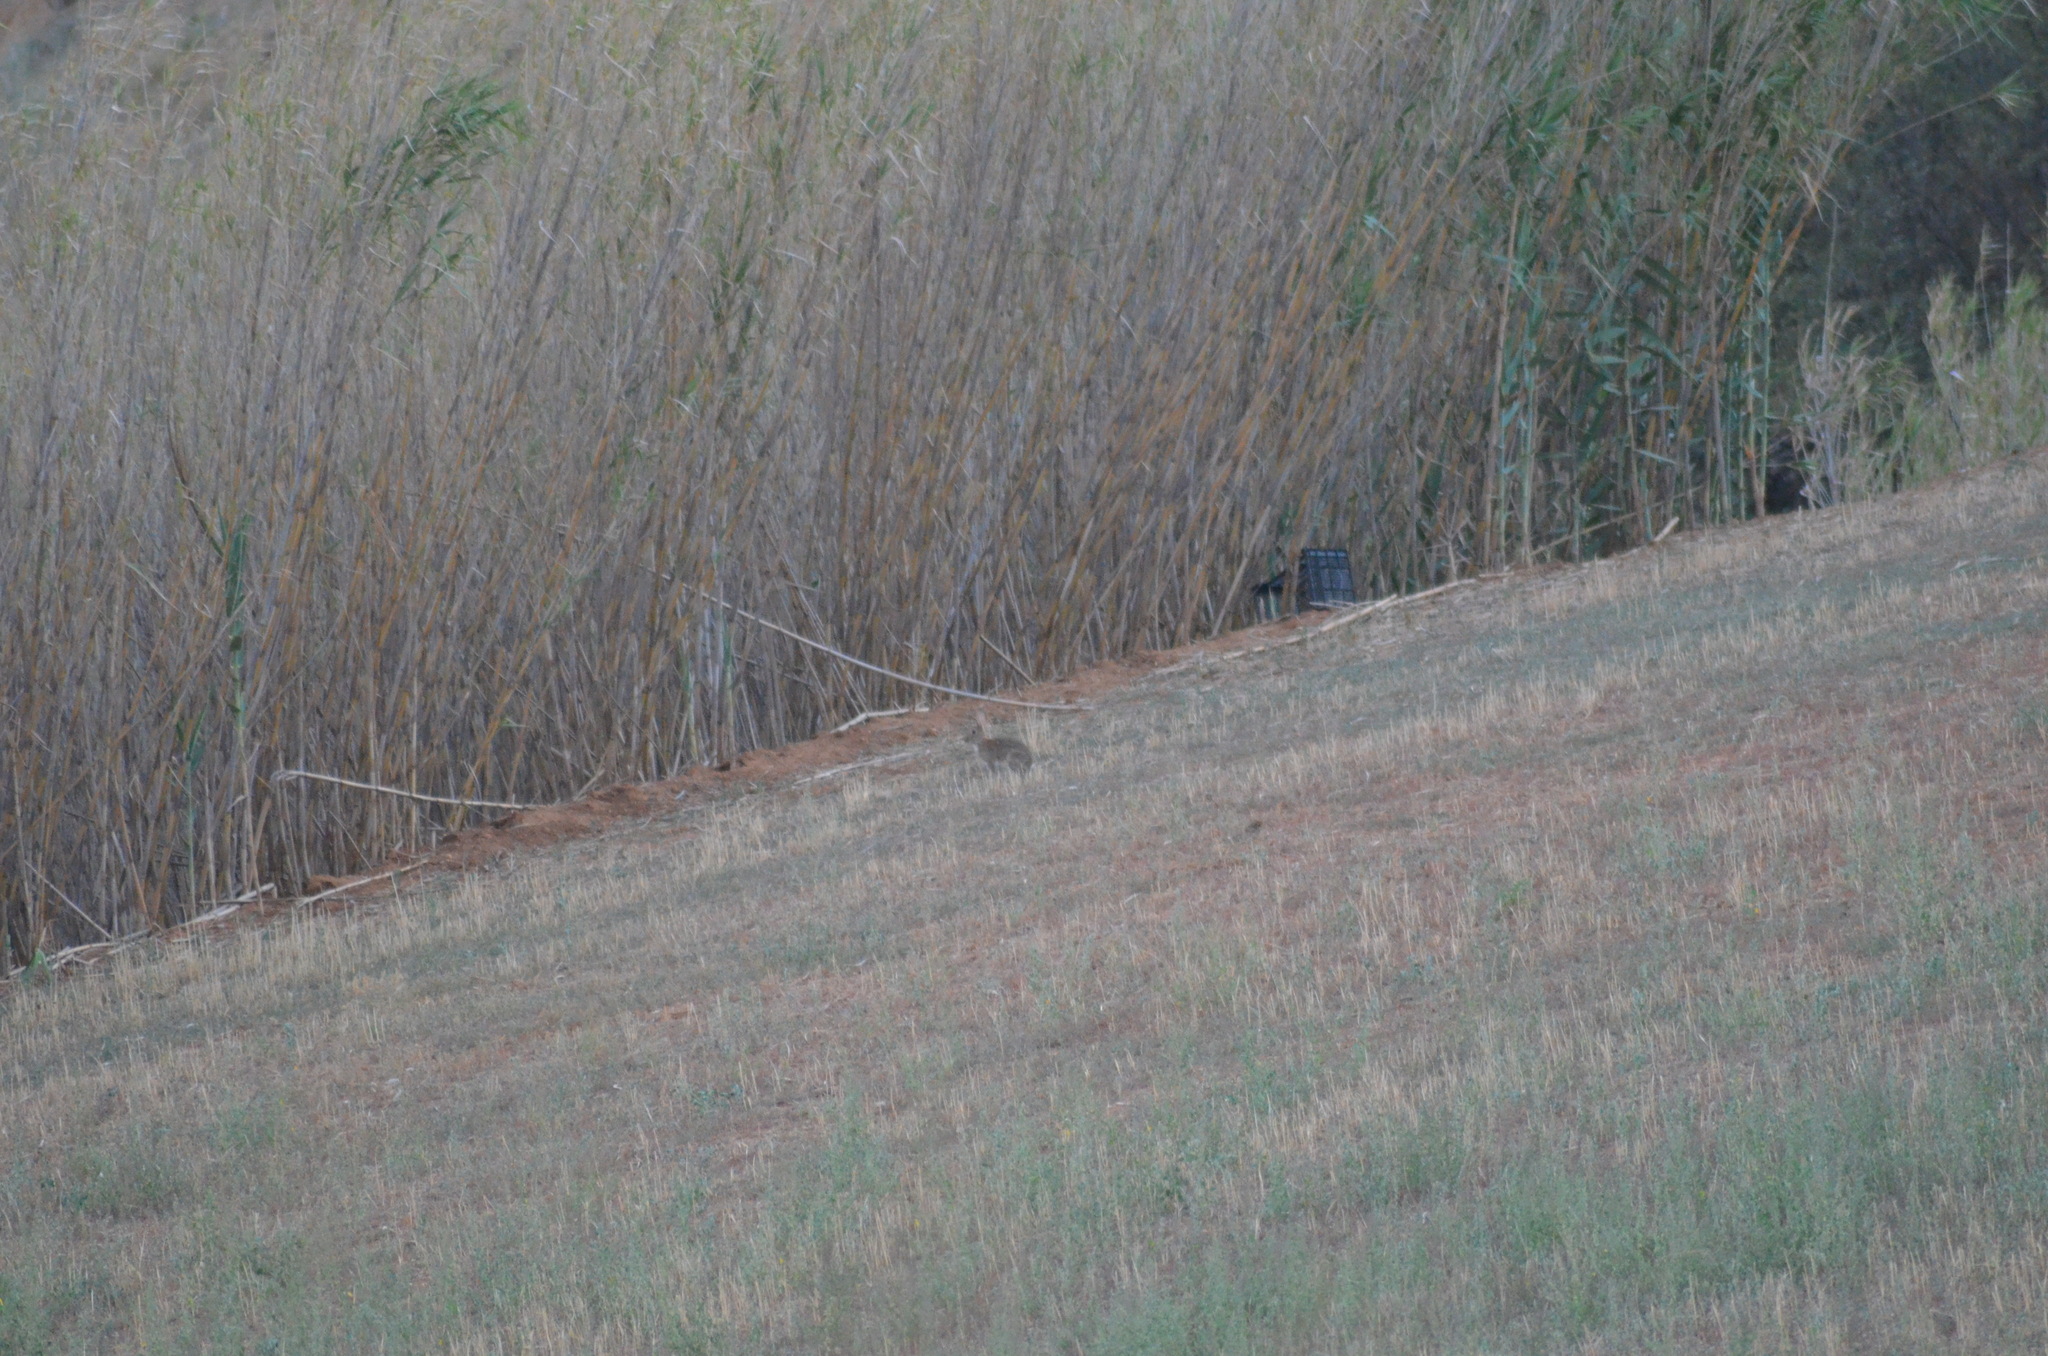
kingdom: Animalia
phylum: Chordata
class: Mammalia
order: Lagomorpha
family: Leporidae
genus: Oryctolagus
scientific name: Oryctolagus cuniculus
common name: European rabbit
